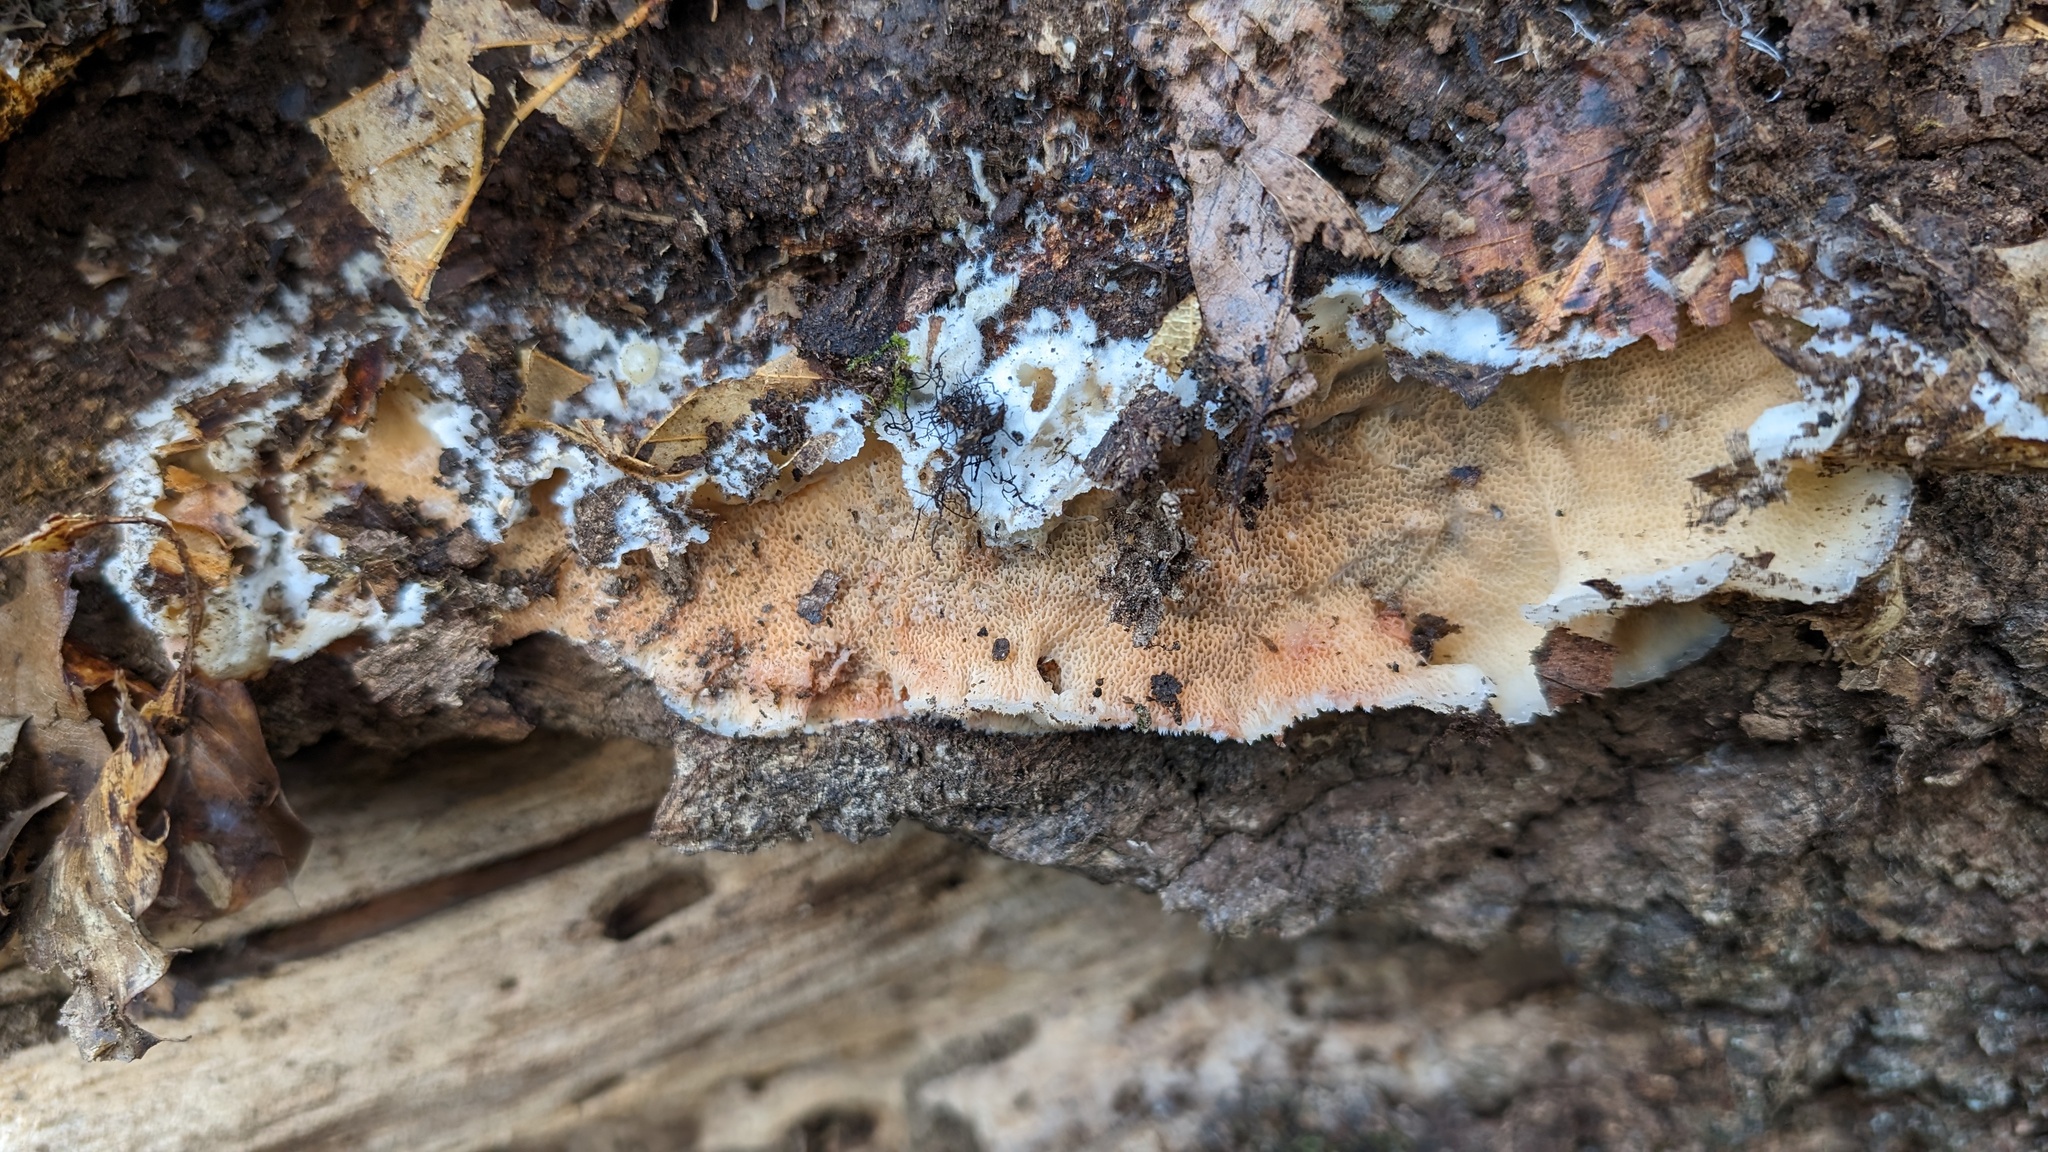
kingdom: Fungi
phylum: Basidiomycota
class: Agaricomycetes
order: Polyporales
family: Meruliaceae
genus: Phlebia
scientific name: Phlebia tremellosa
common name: Jelly rot
